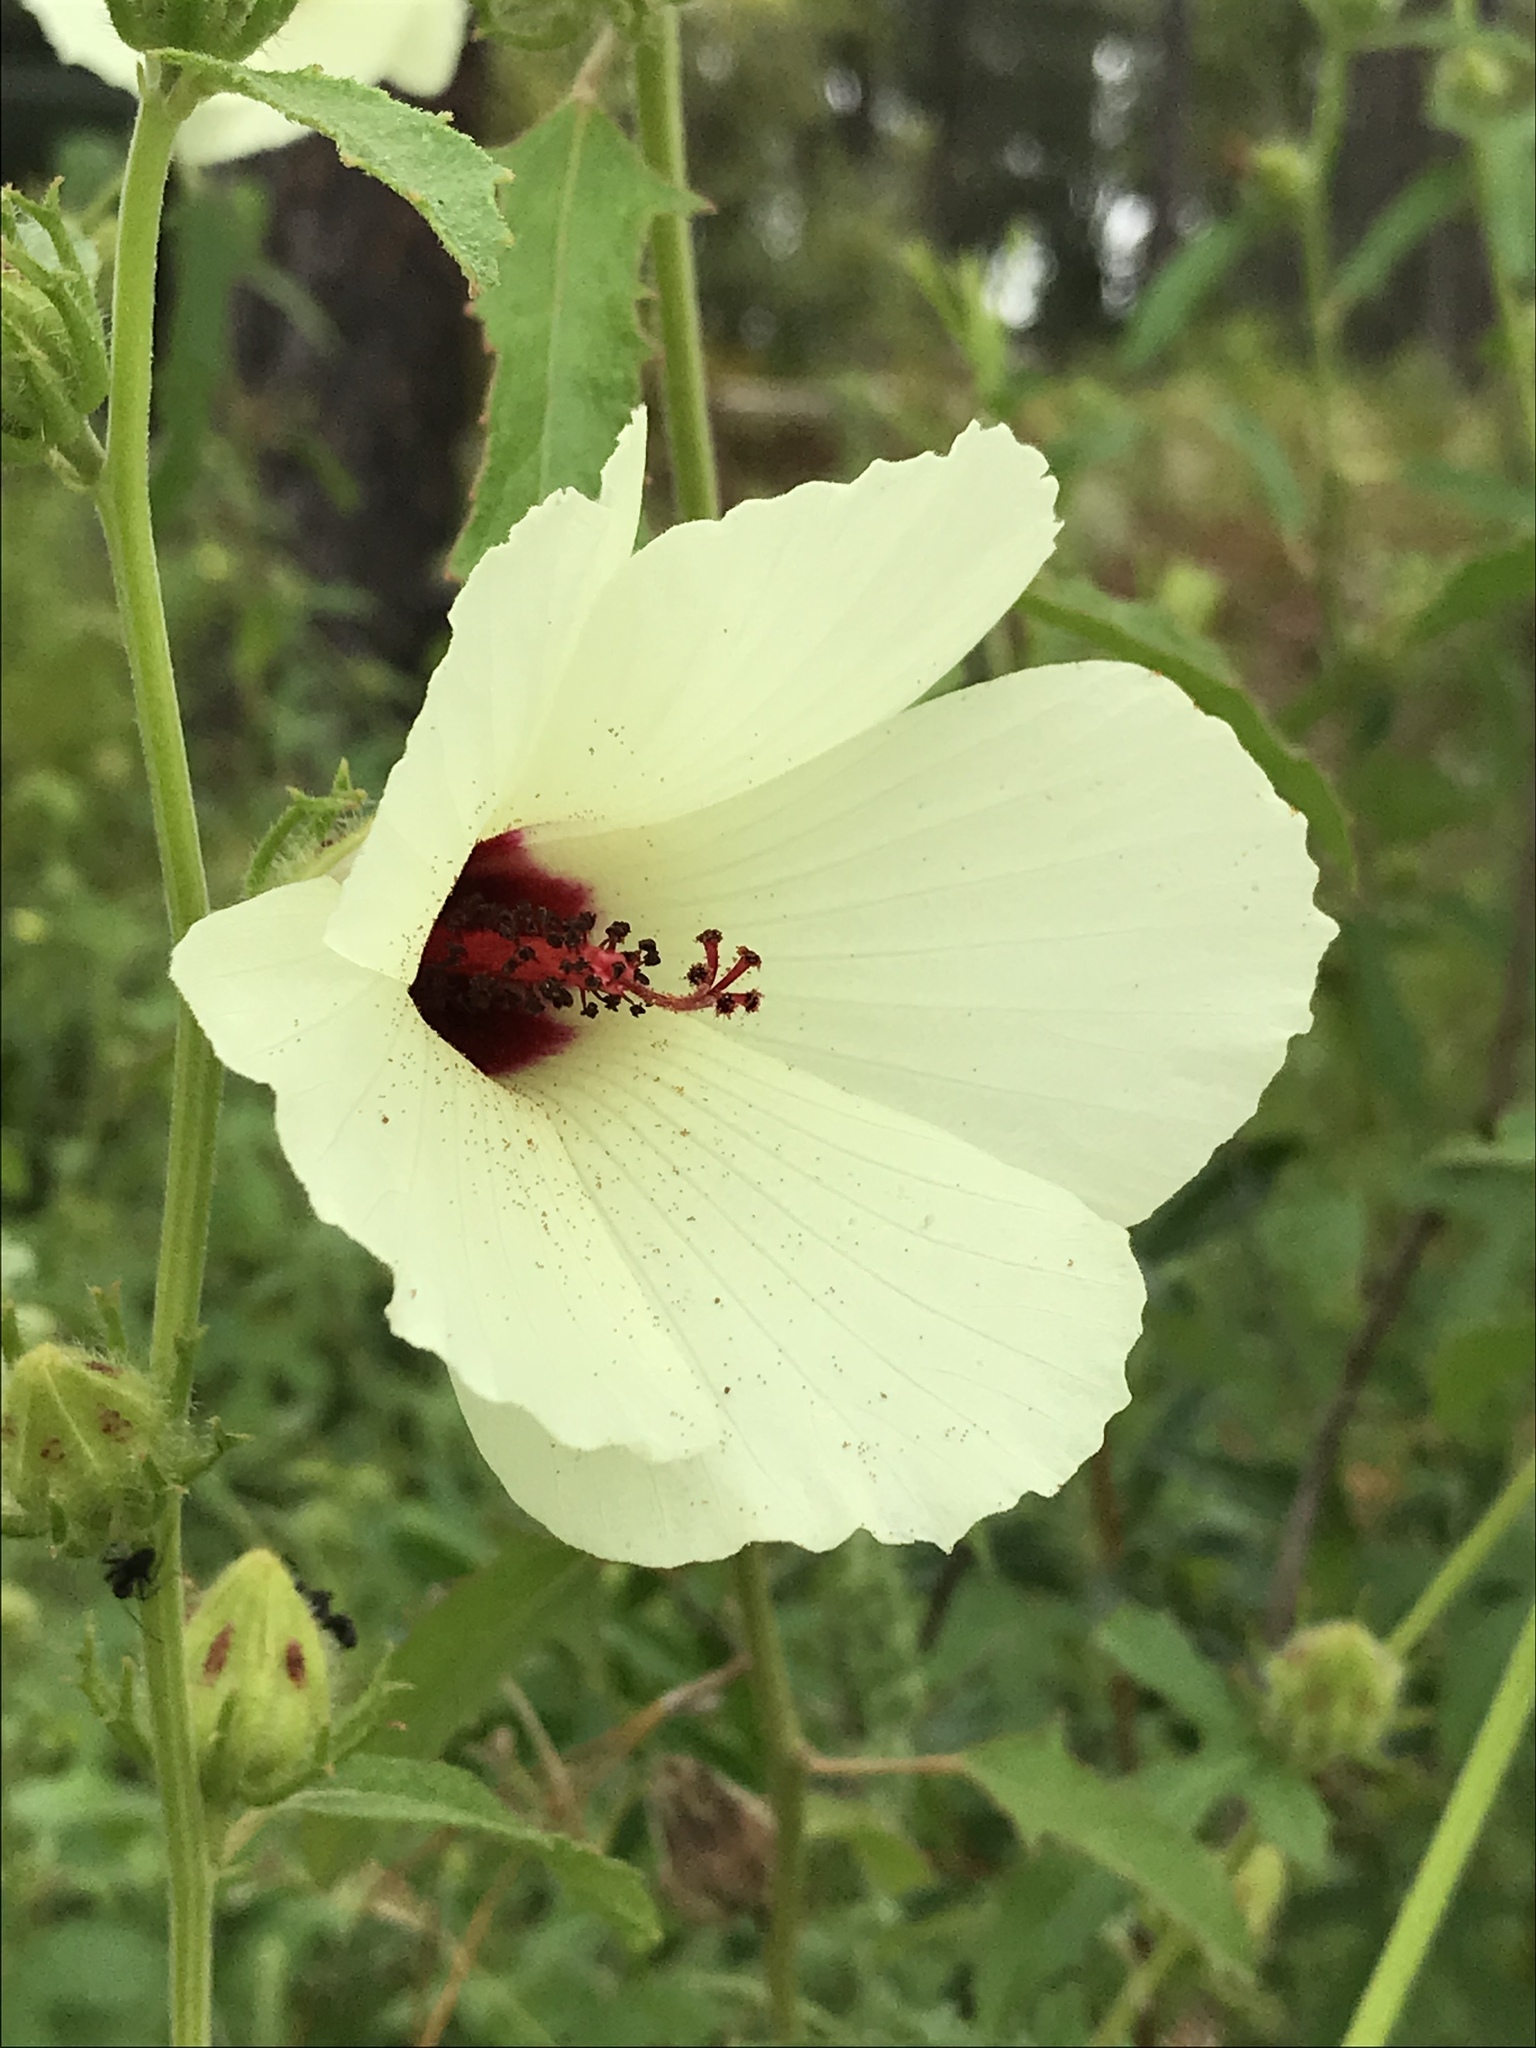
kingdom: Plantae
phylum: Tracheophyta
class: Magnoliopsida
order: Malvales
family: Malvaceae
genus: Hibiscus
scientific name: Hibiscus aculeatus
